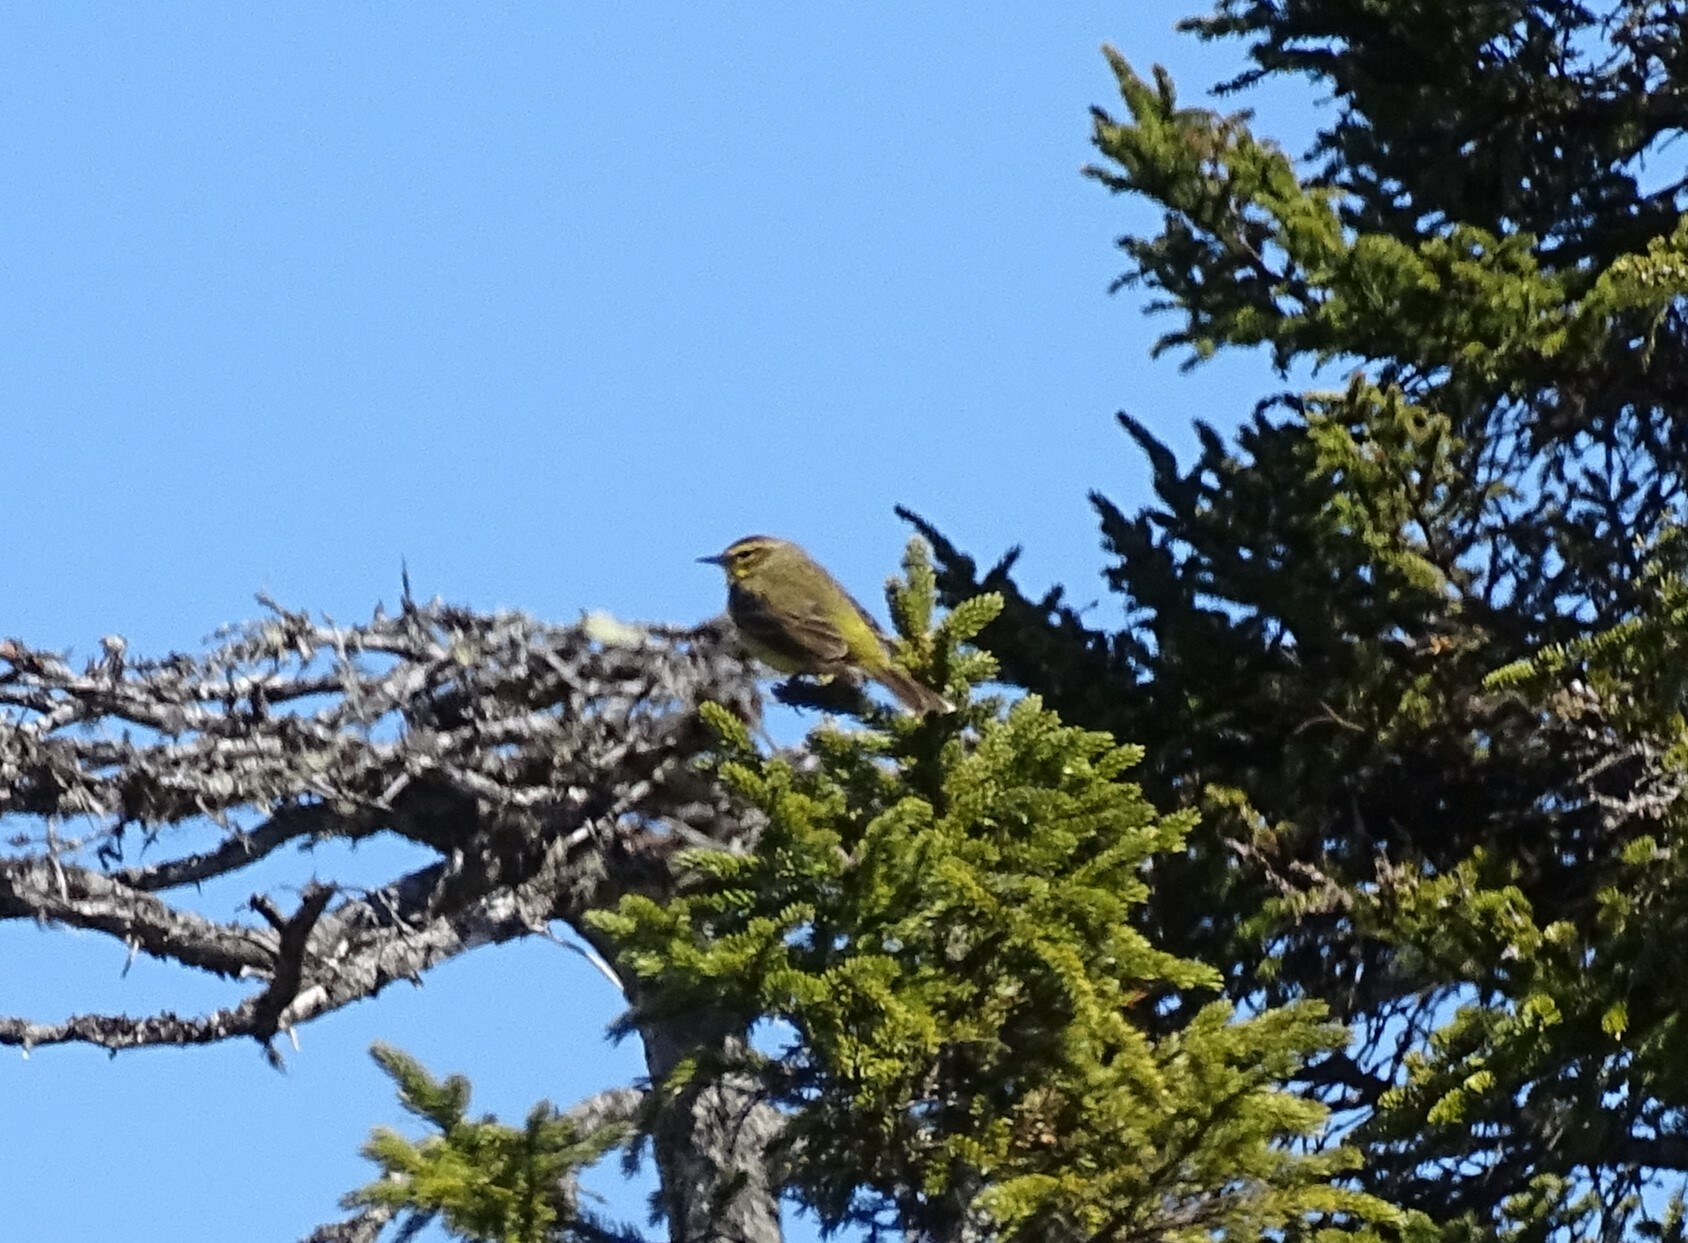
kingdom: Animalia
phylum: Chordata
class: Aves
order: Passeriformes
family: Parulidae
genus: Setophaga
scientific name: Setophaga palmarum
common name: Palm warbler
